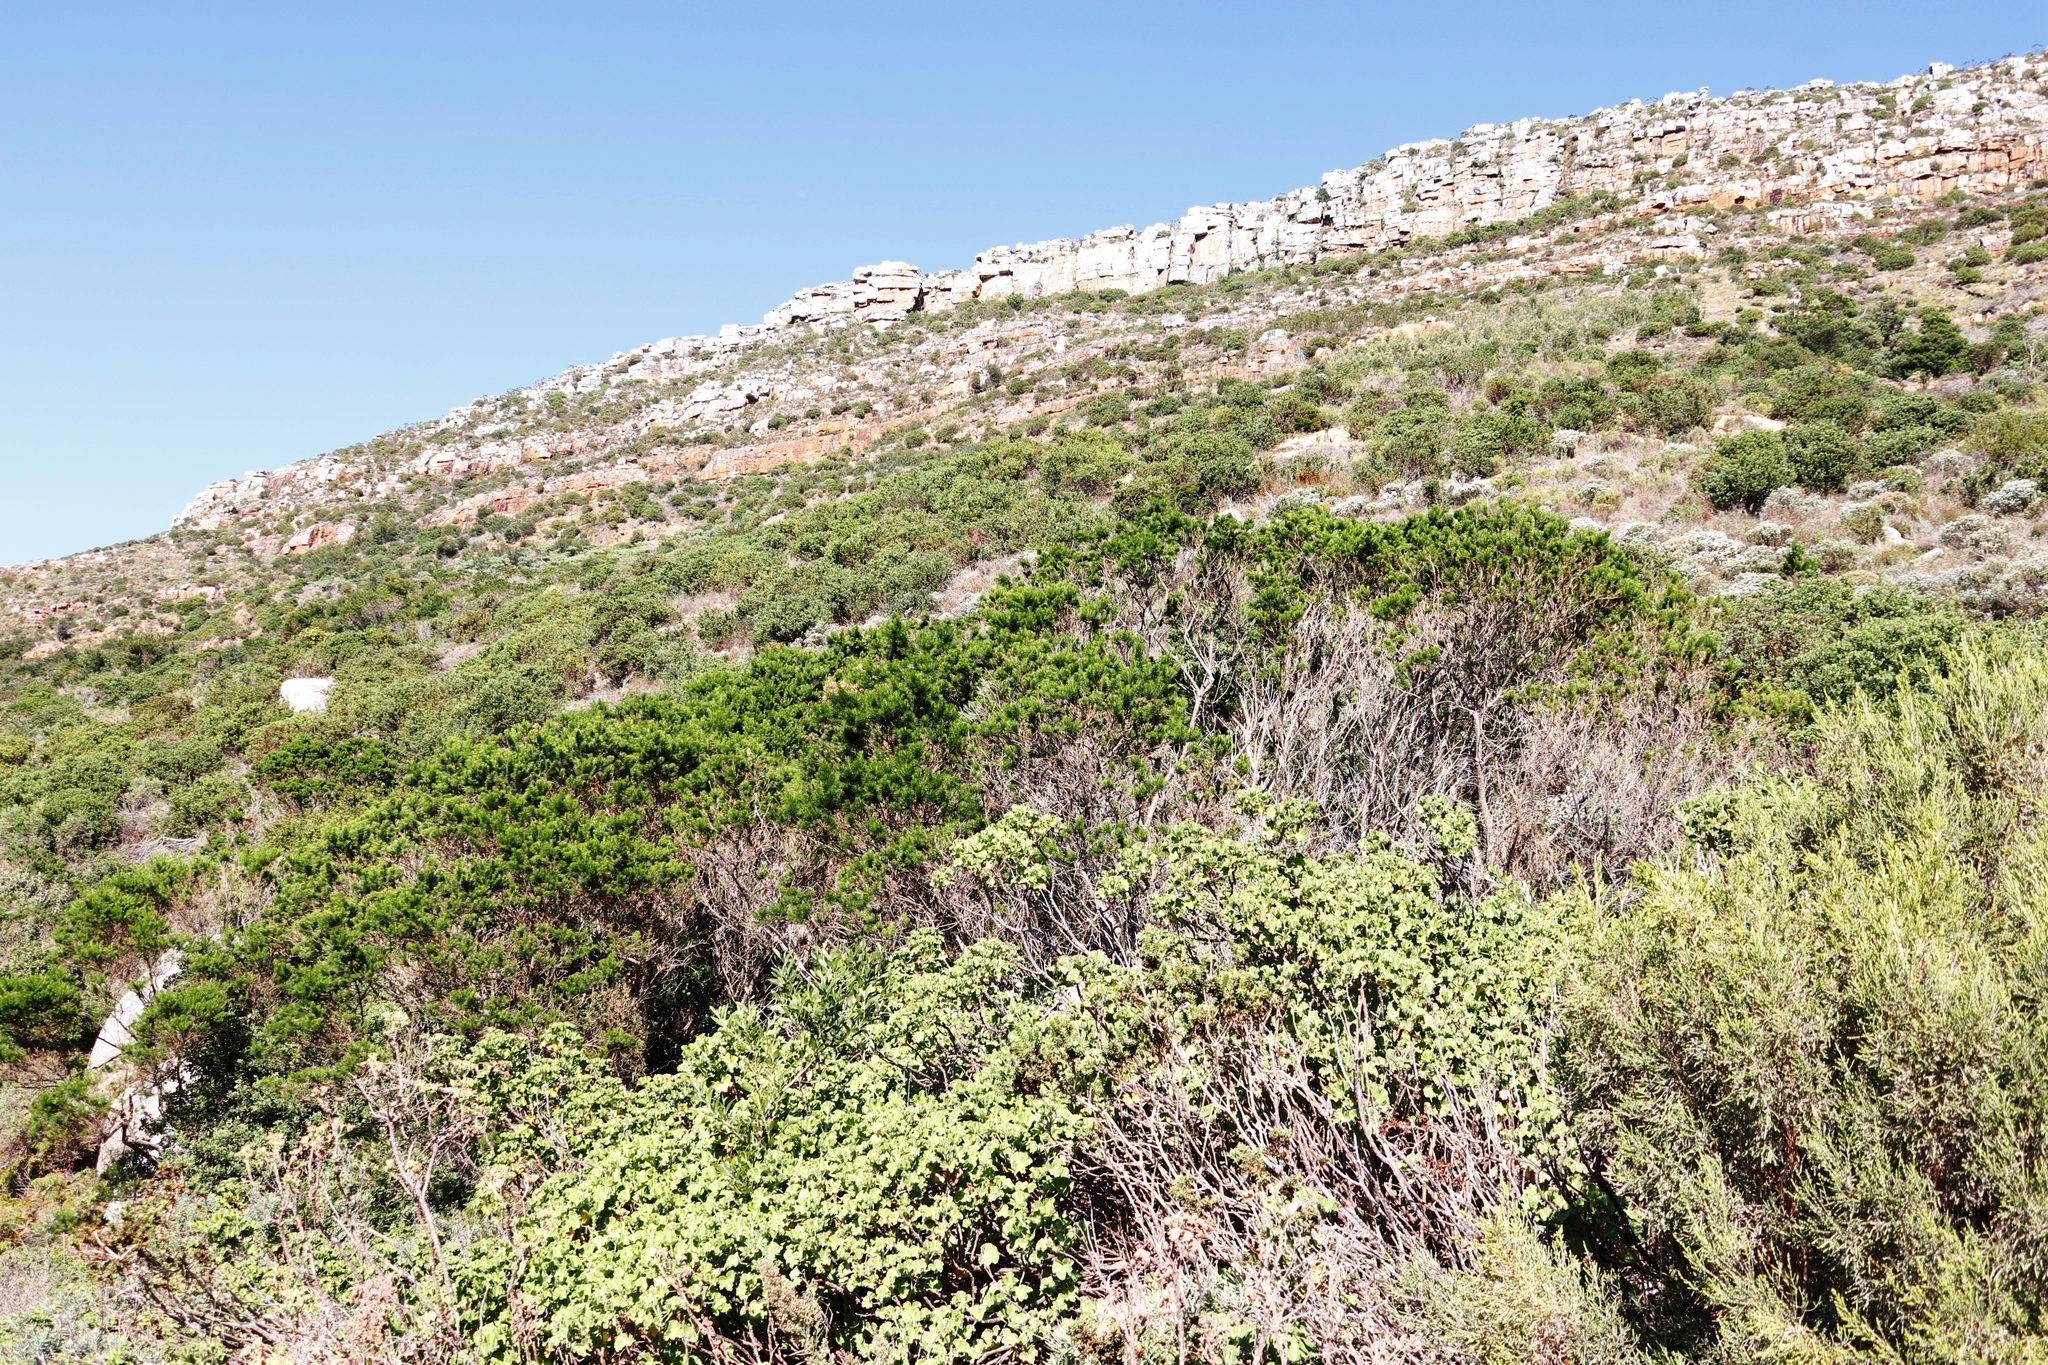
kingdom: Plantae
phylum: Tracheophyta
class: Magnoliopsida
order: Geraniales
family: Geraniaceae
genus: Pelargonium
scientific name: Pelargonium cucullatum
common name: Tree pelargonium
